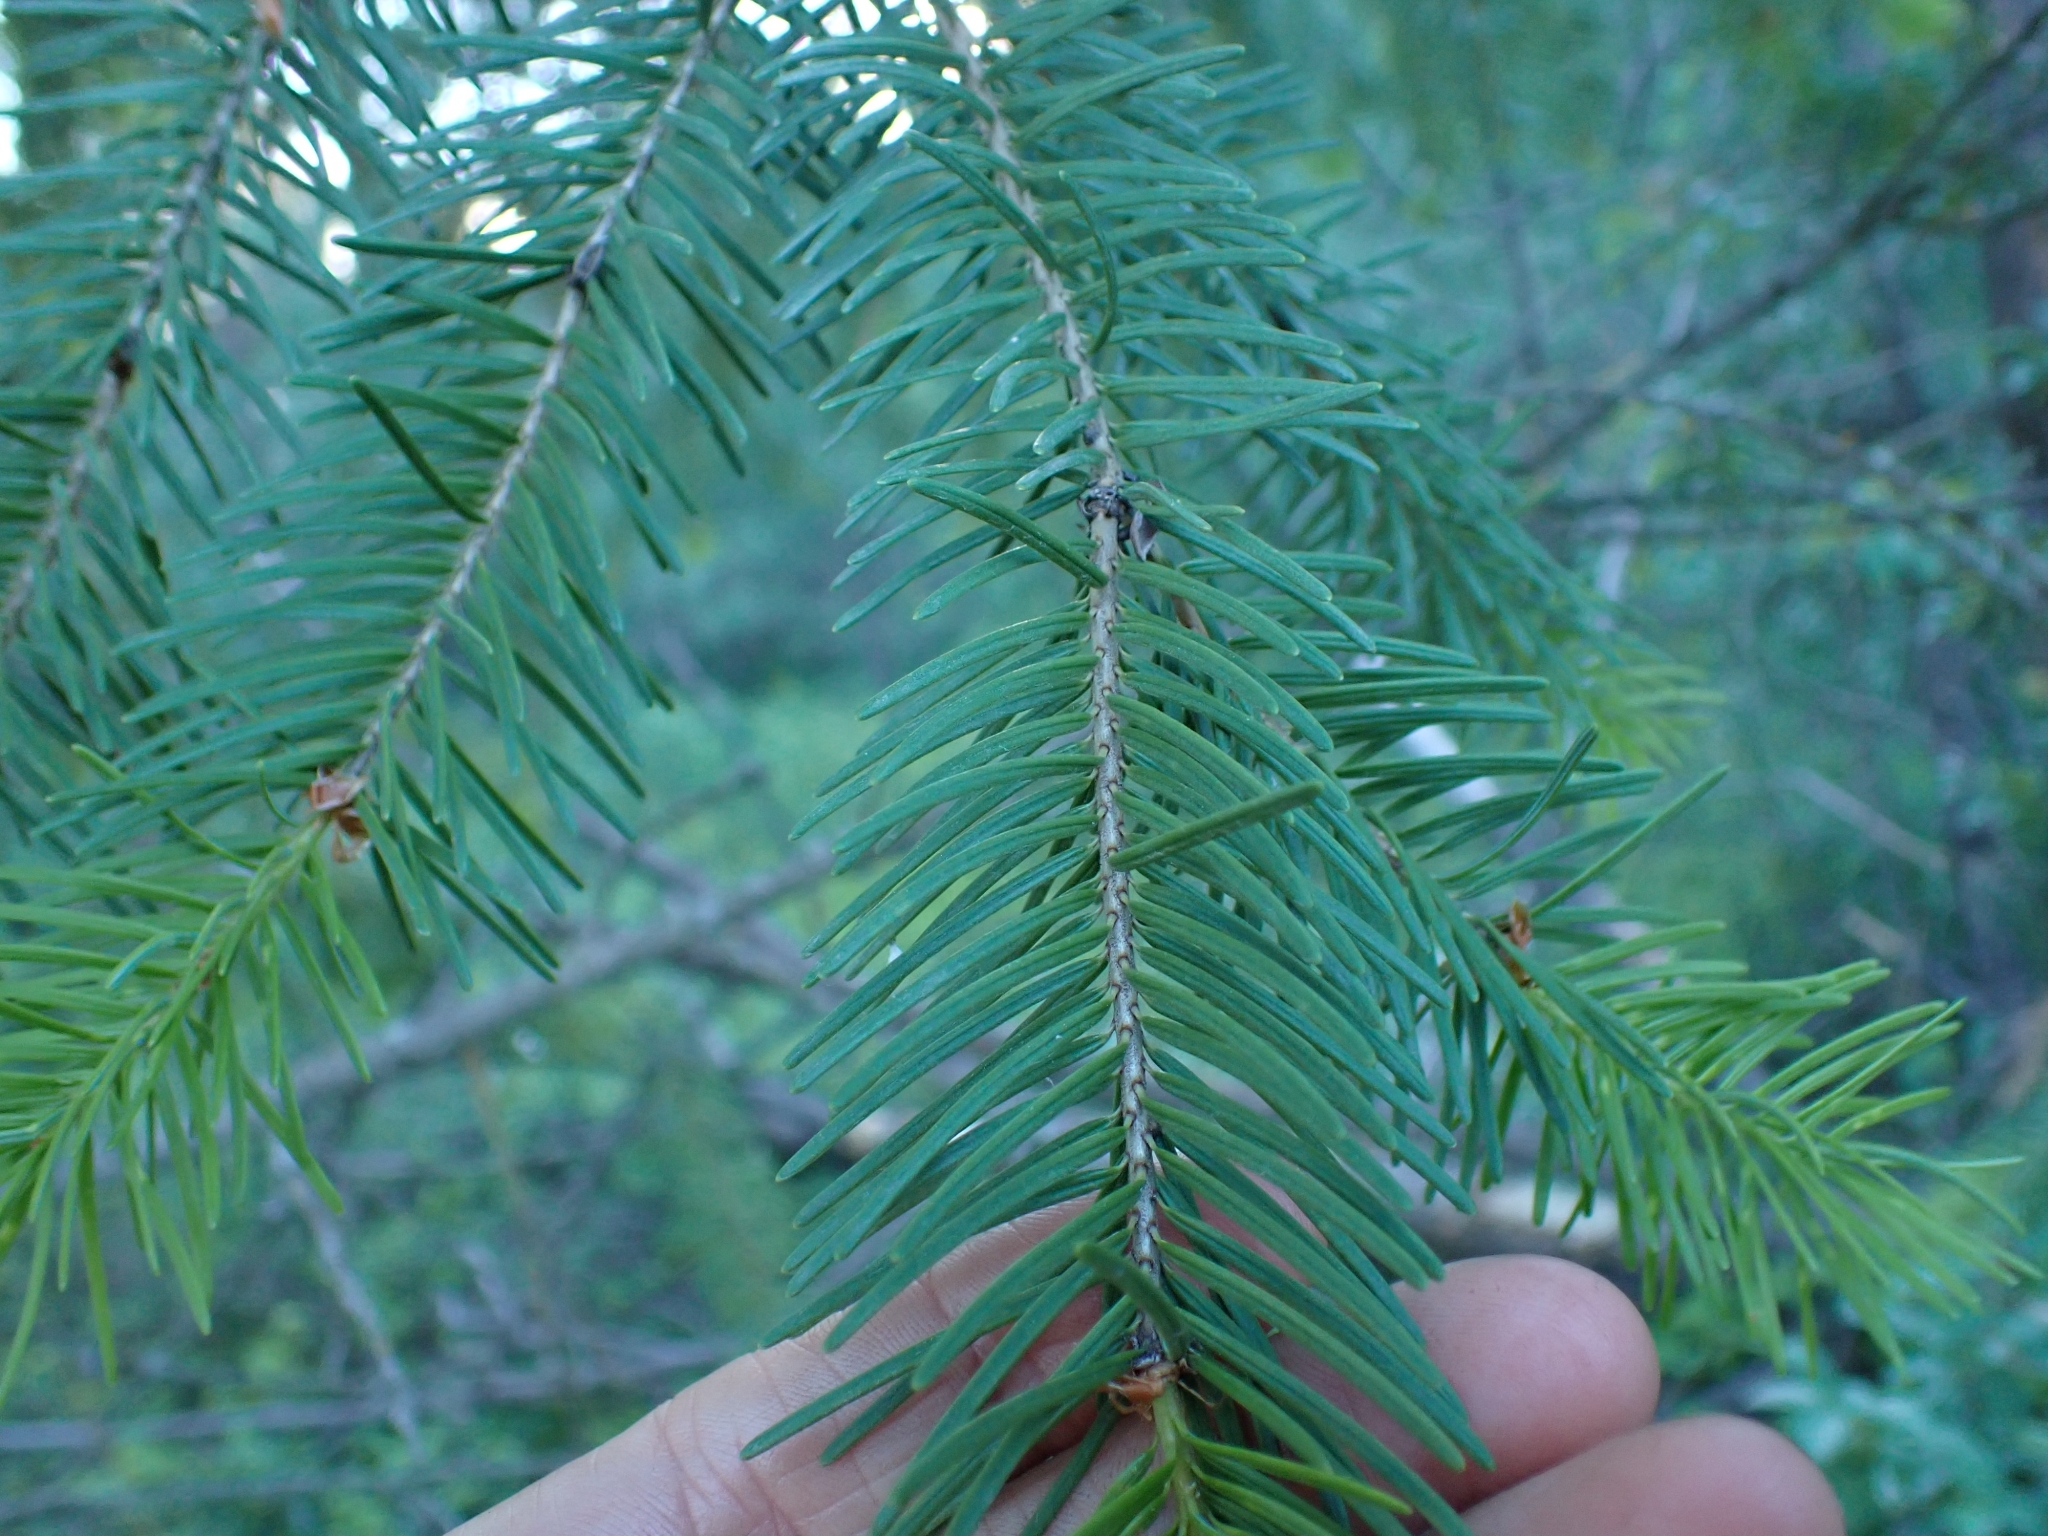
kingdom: Plantae
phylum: Tracheophyta
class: Pinopsida
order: Pinales
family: Pinaceae
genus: Pseudotsuga
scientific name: Pseudotsuga menziesii
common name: Douglas fir
